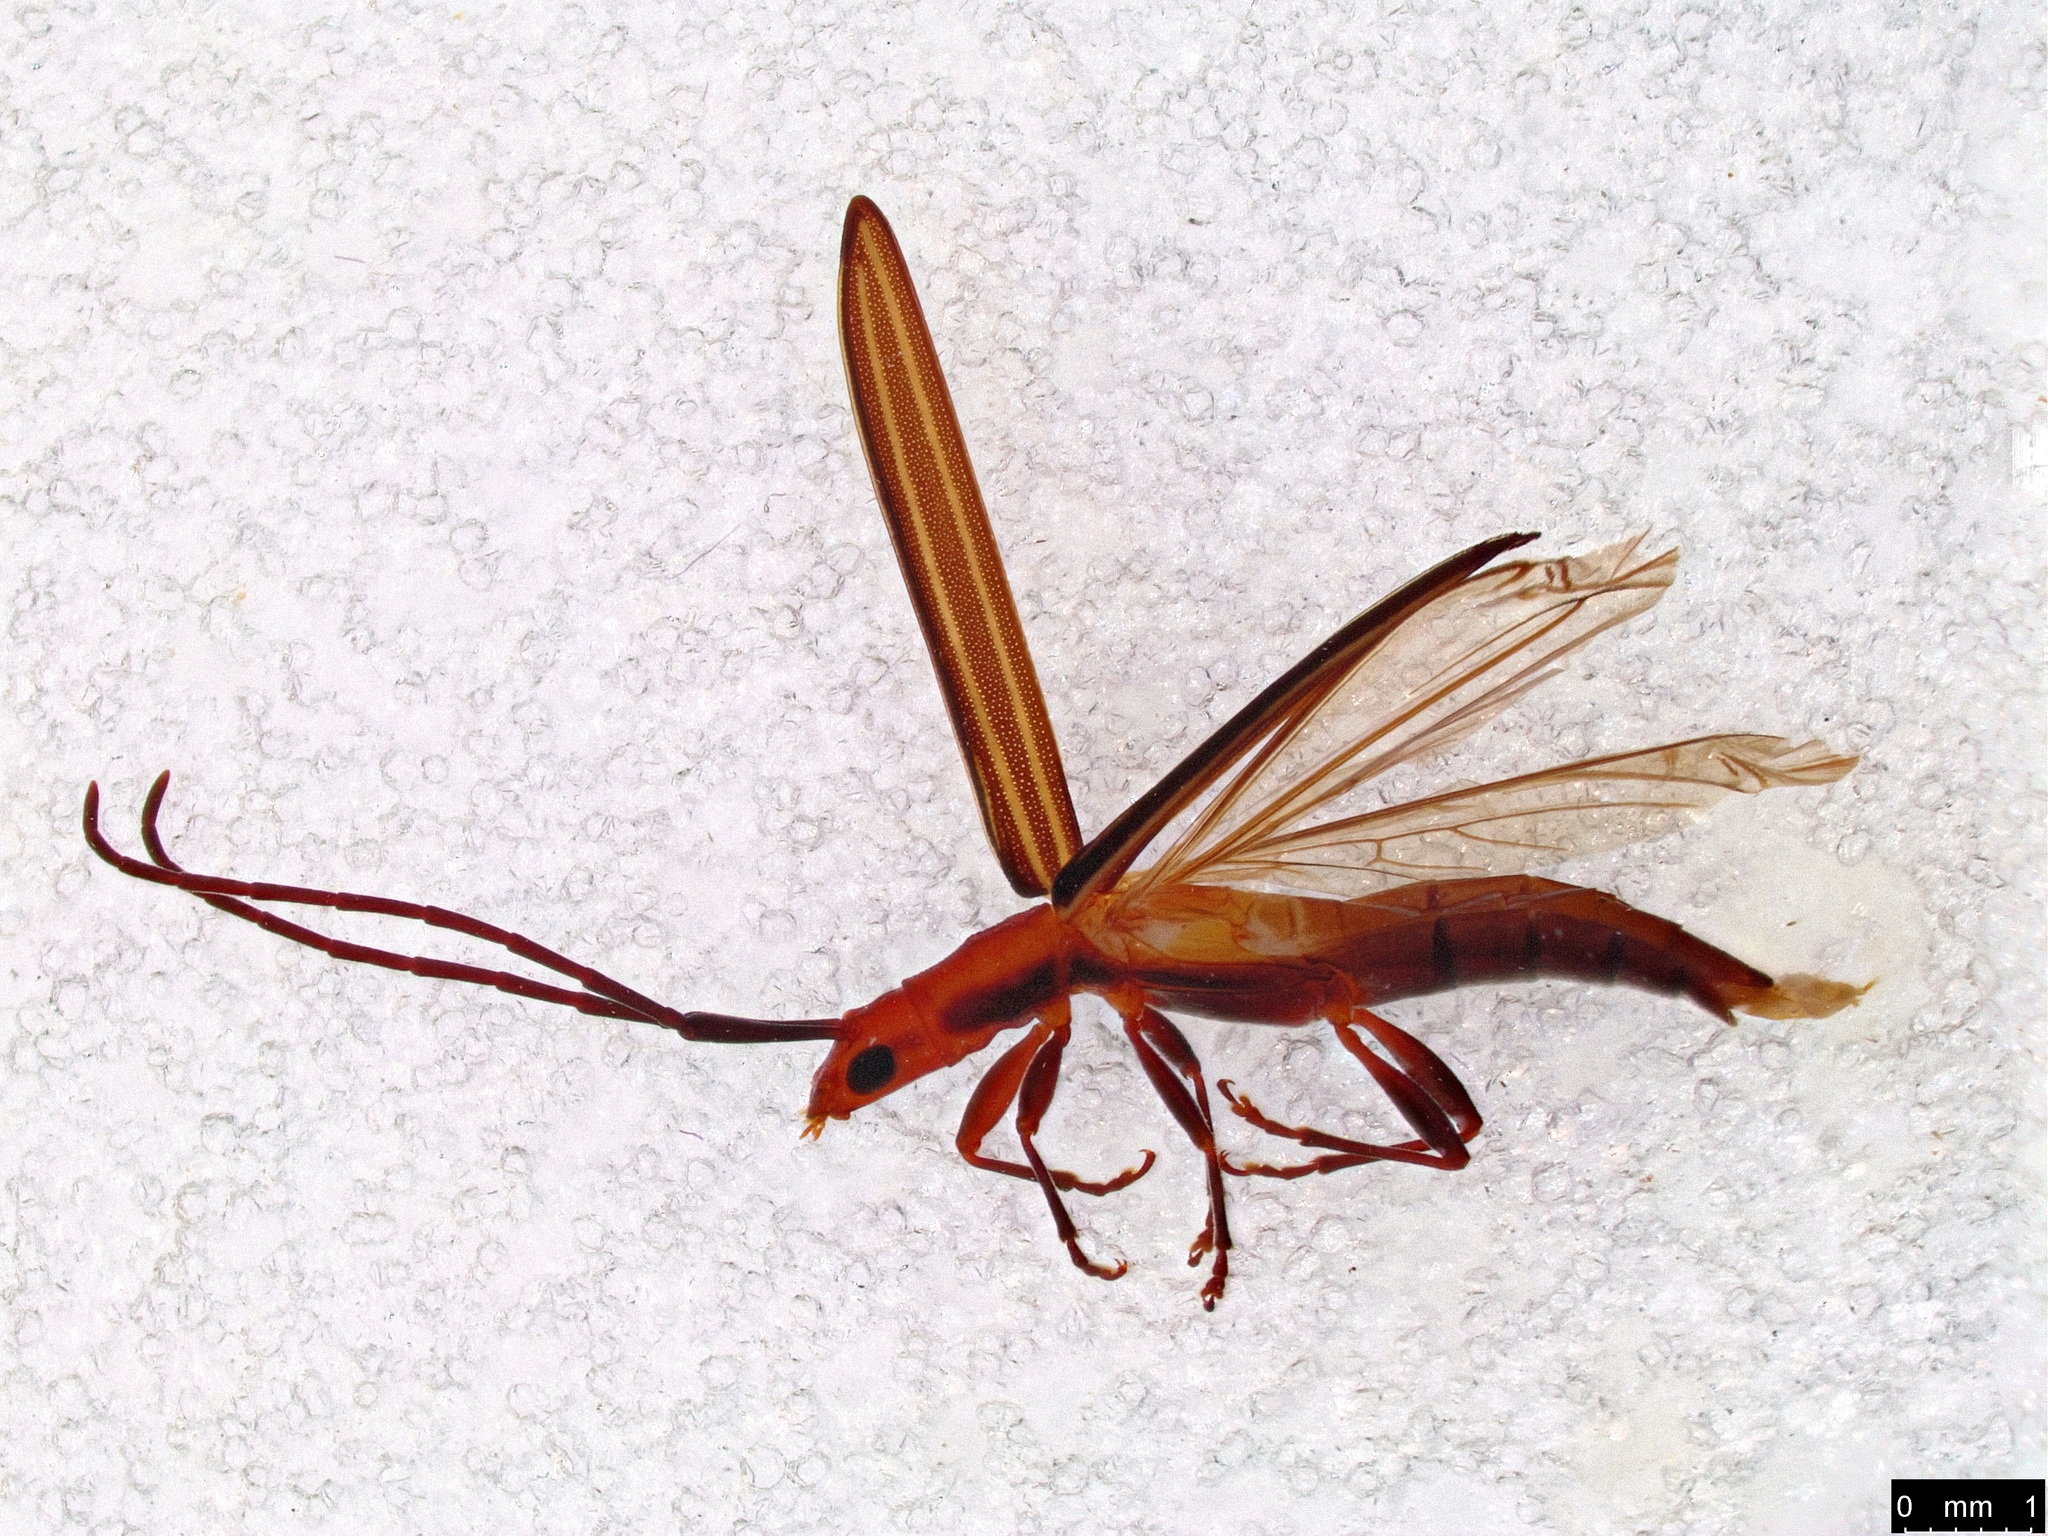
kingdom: Animalia
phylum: Arthropoda
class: Insecta
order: Coleoptera
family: Cerambycidae
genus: Syllitus
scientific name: Syllitus rectus
